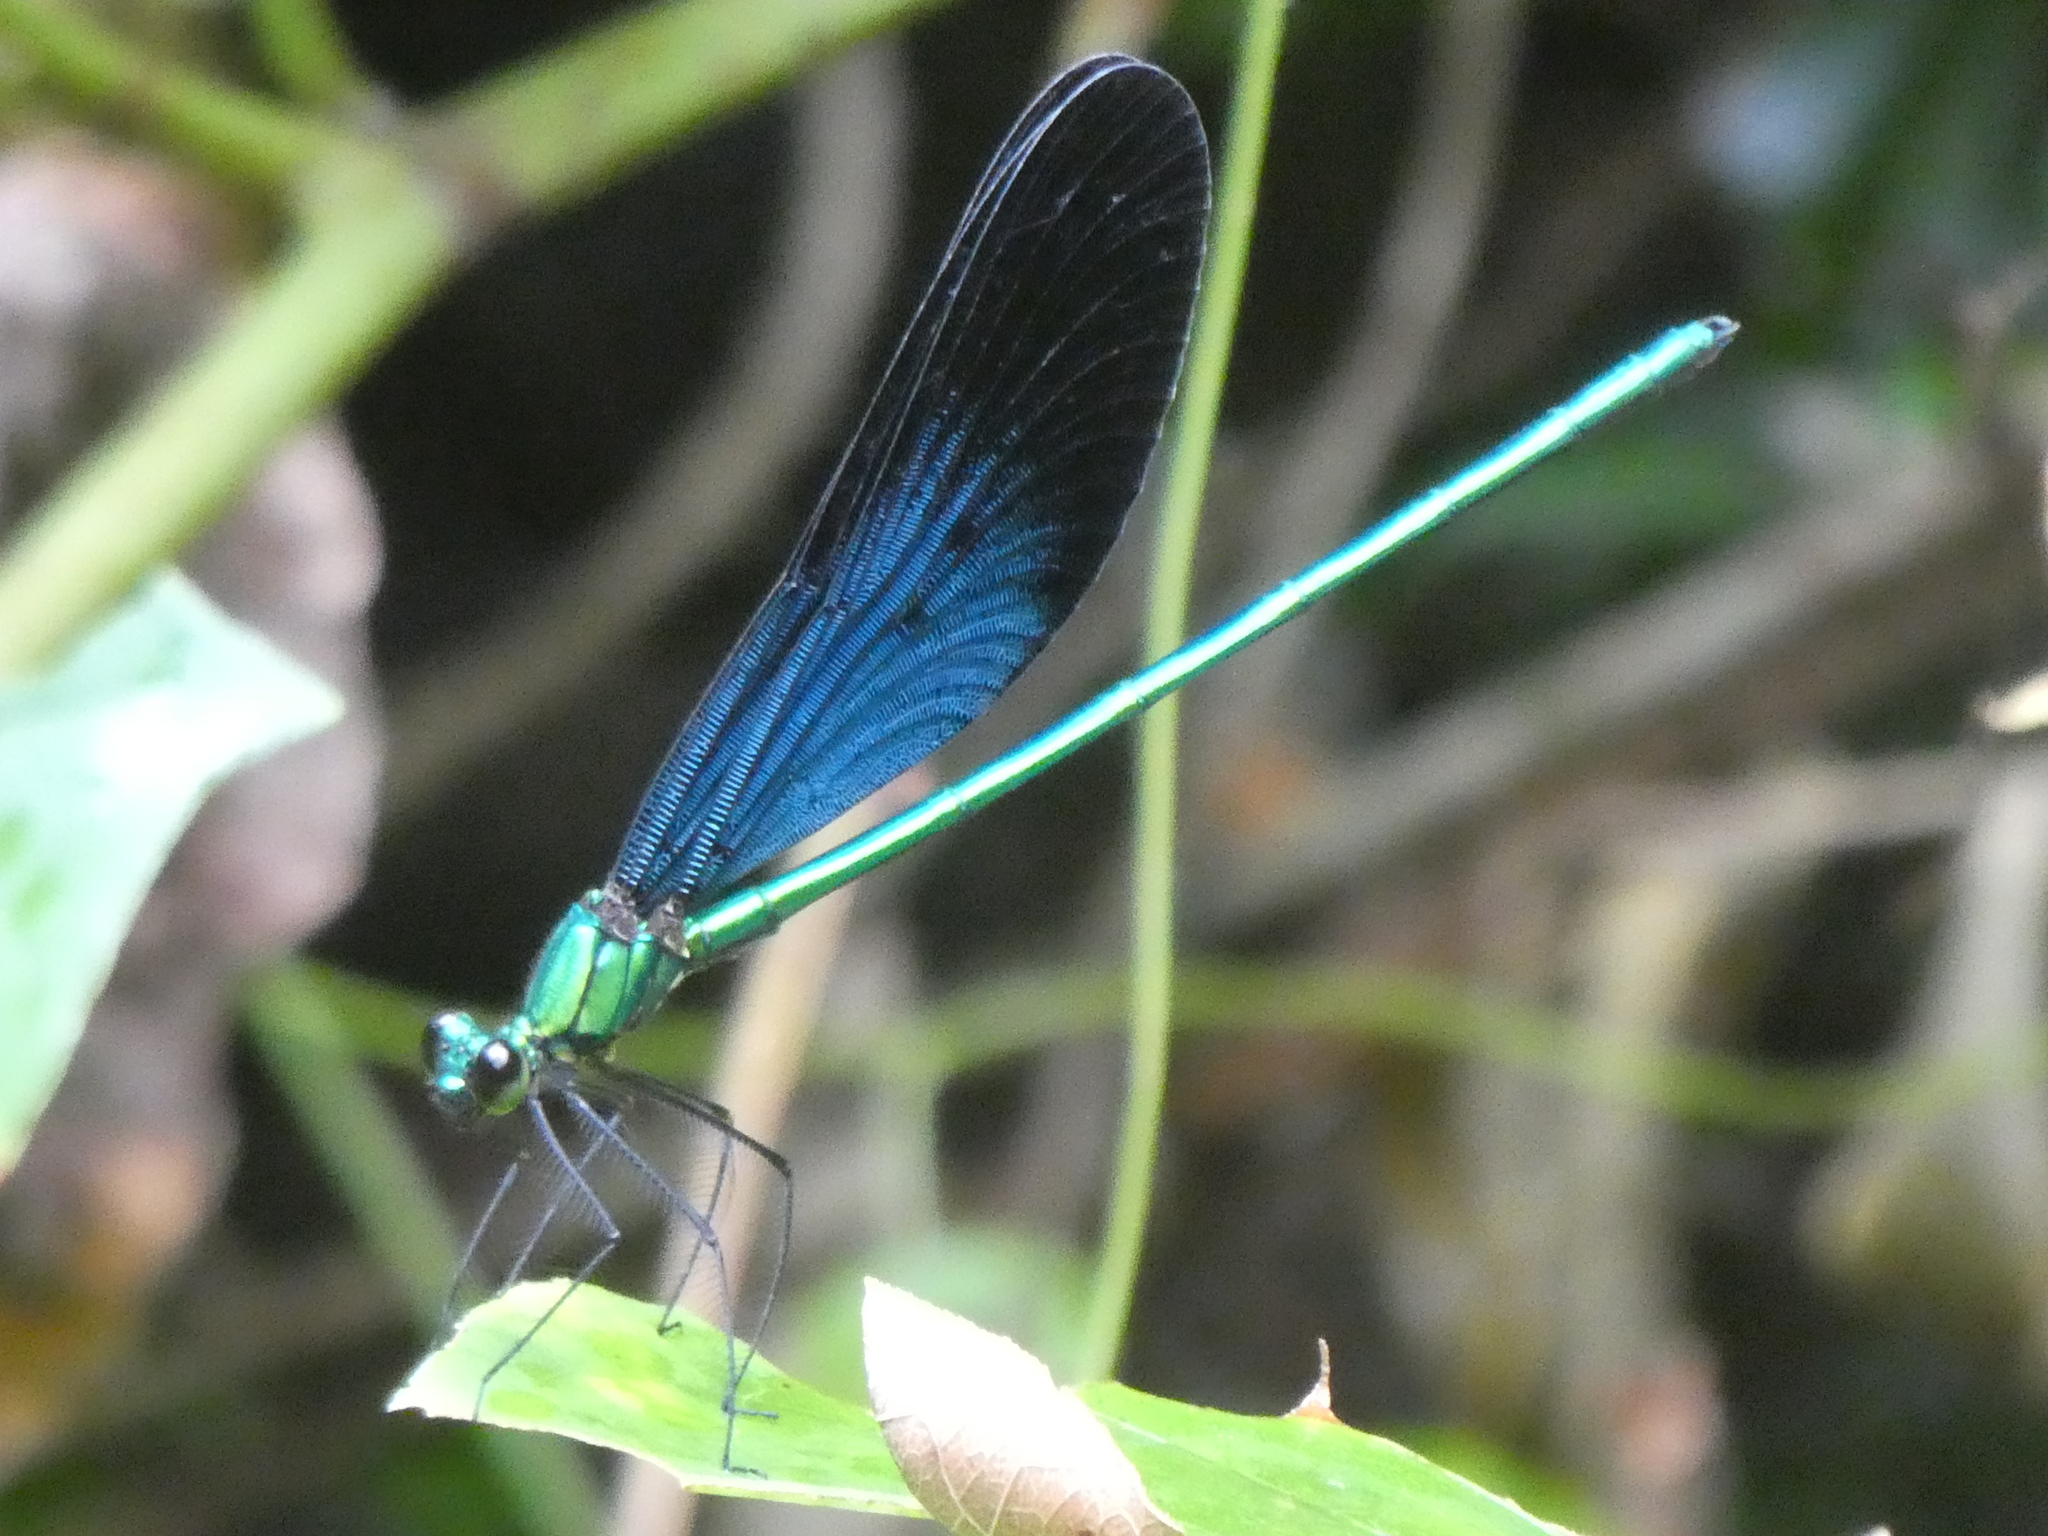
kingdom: Animalia
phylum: Arthropoda
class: Insecta
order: Odonata
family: Calopterygidae
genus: Matrona
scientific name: Matrona basilaris
